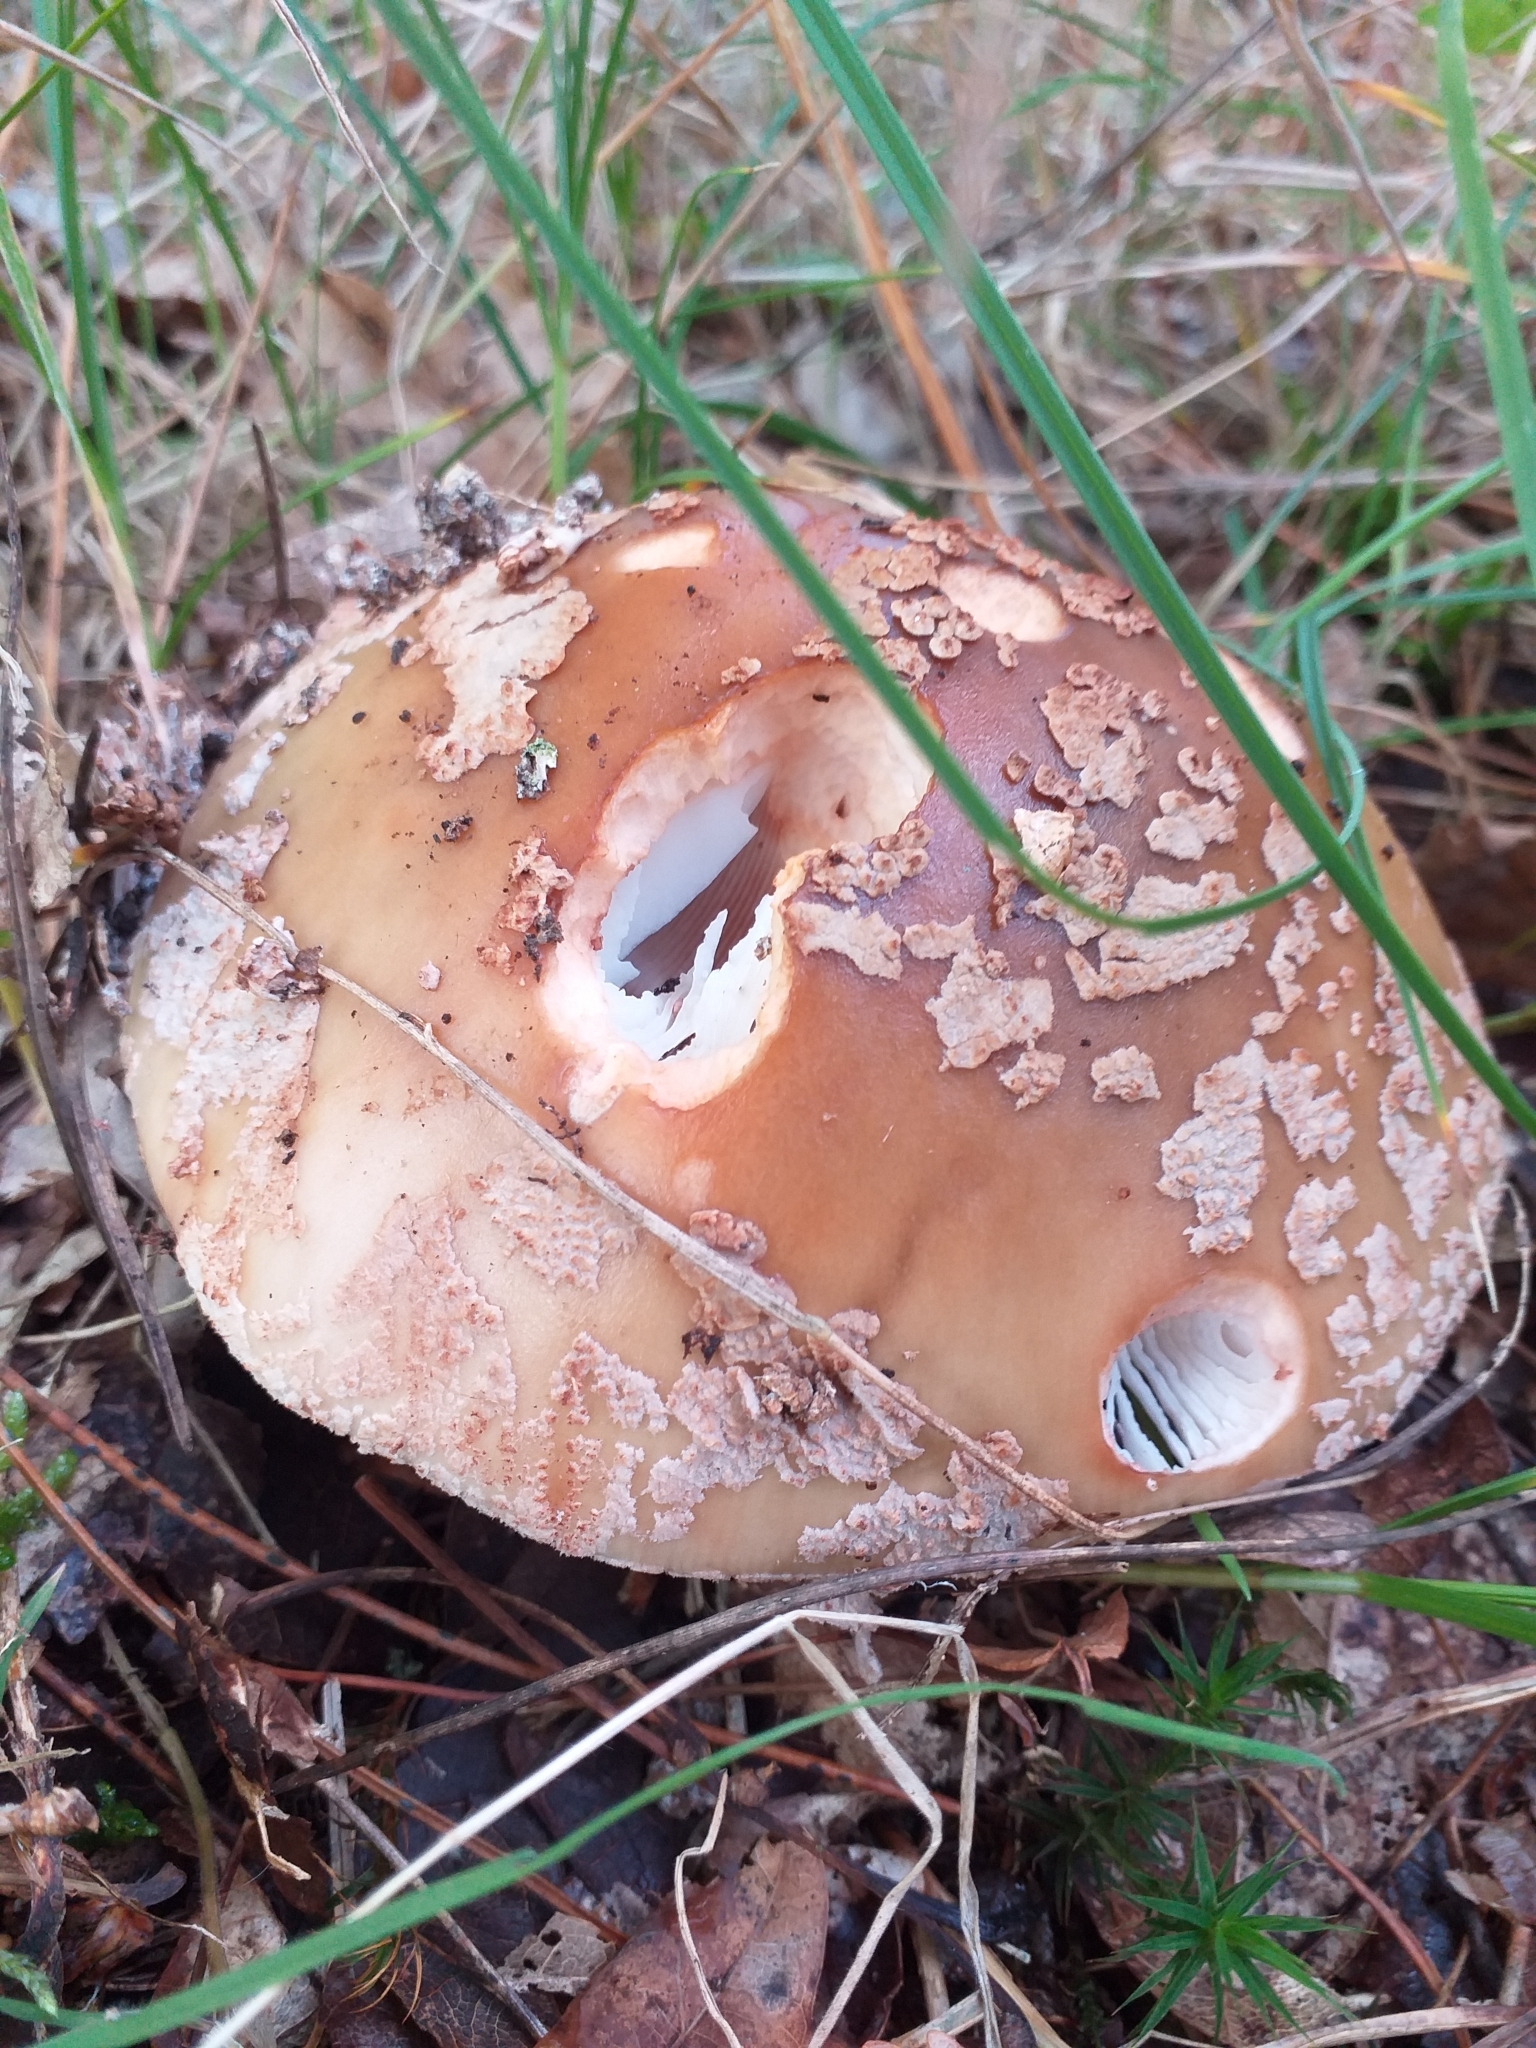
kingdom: Fungi
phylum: Basidiomycota
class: Agaricomycetes
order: Agaricales
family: Amanitaceae
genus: Amanita
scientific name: Amanita rubescens
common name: Blusher
